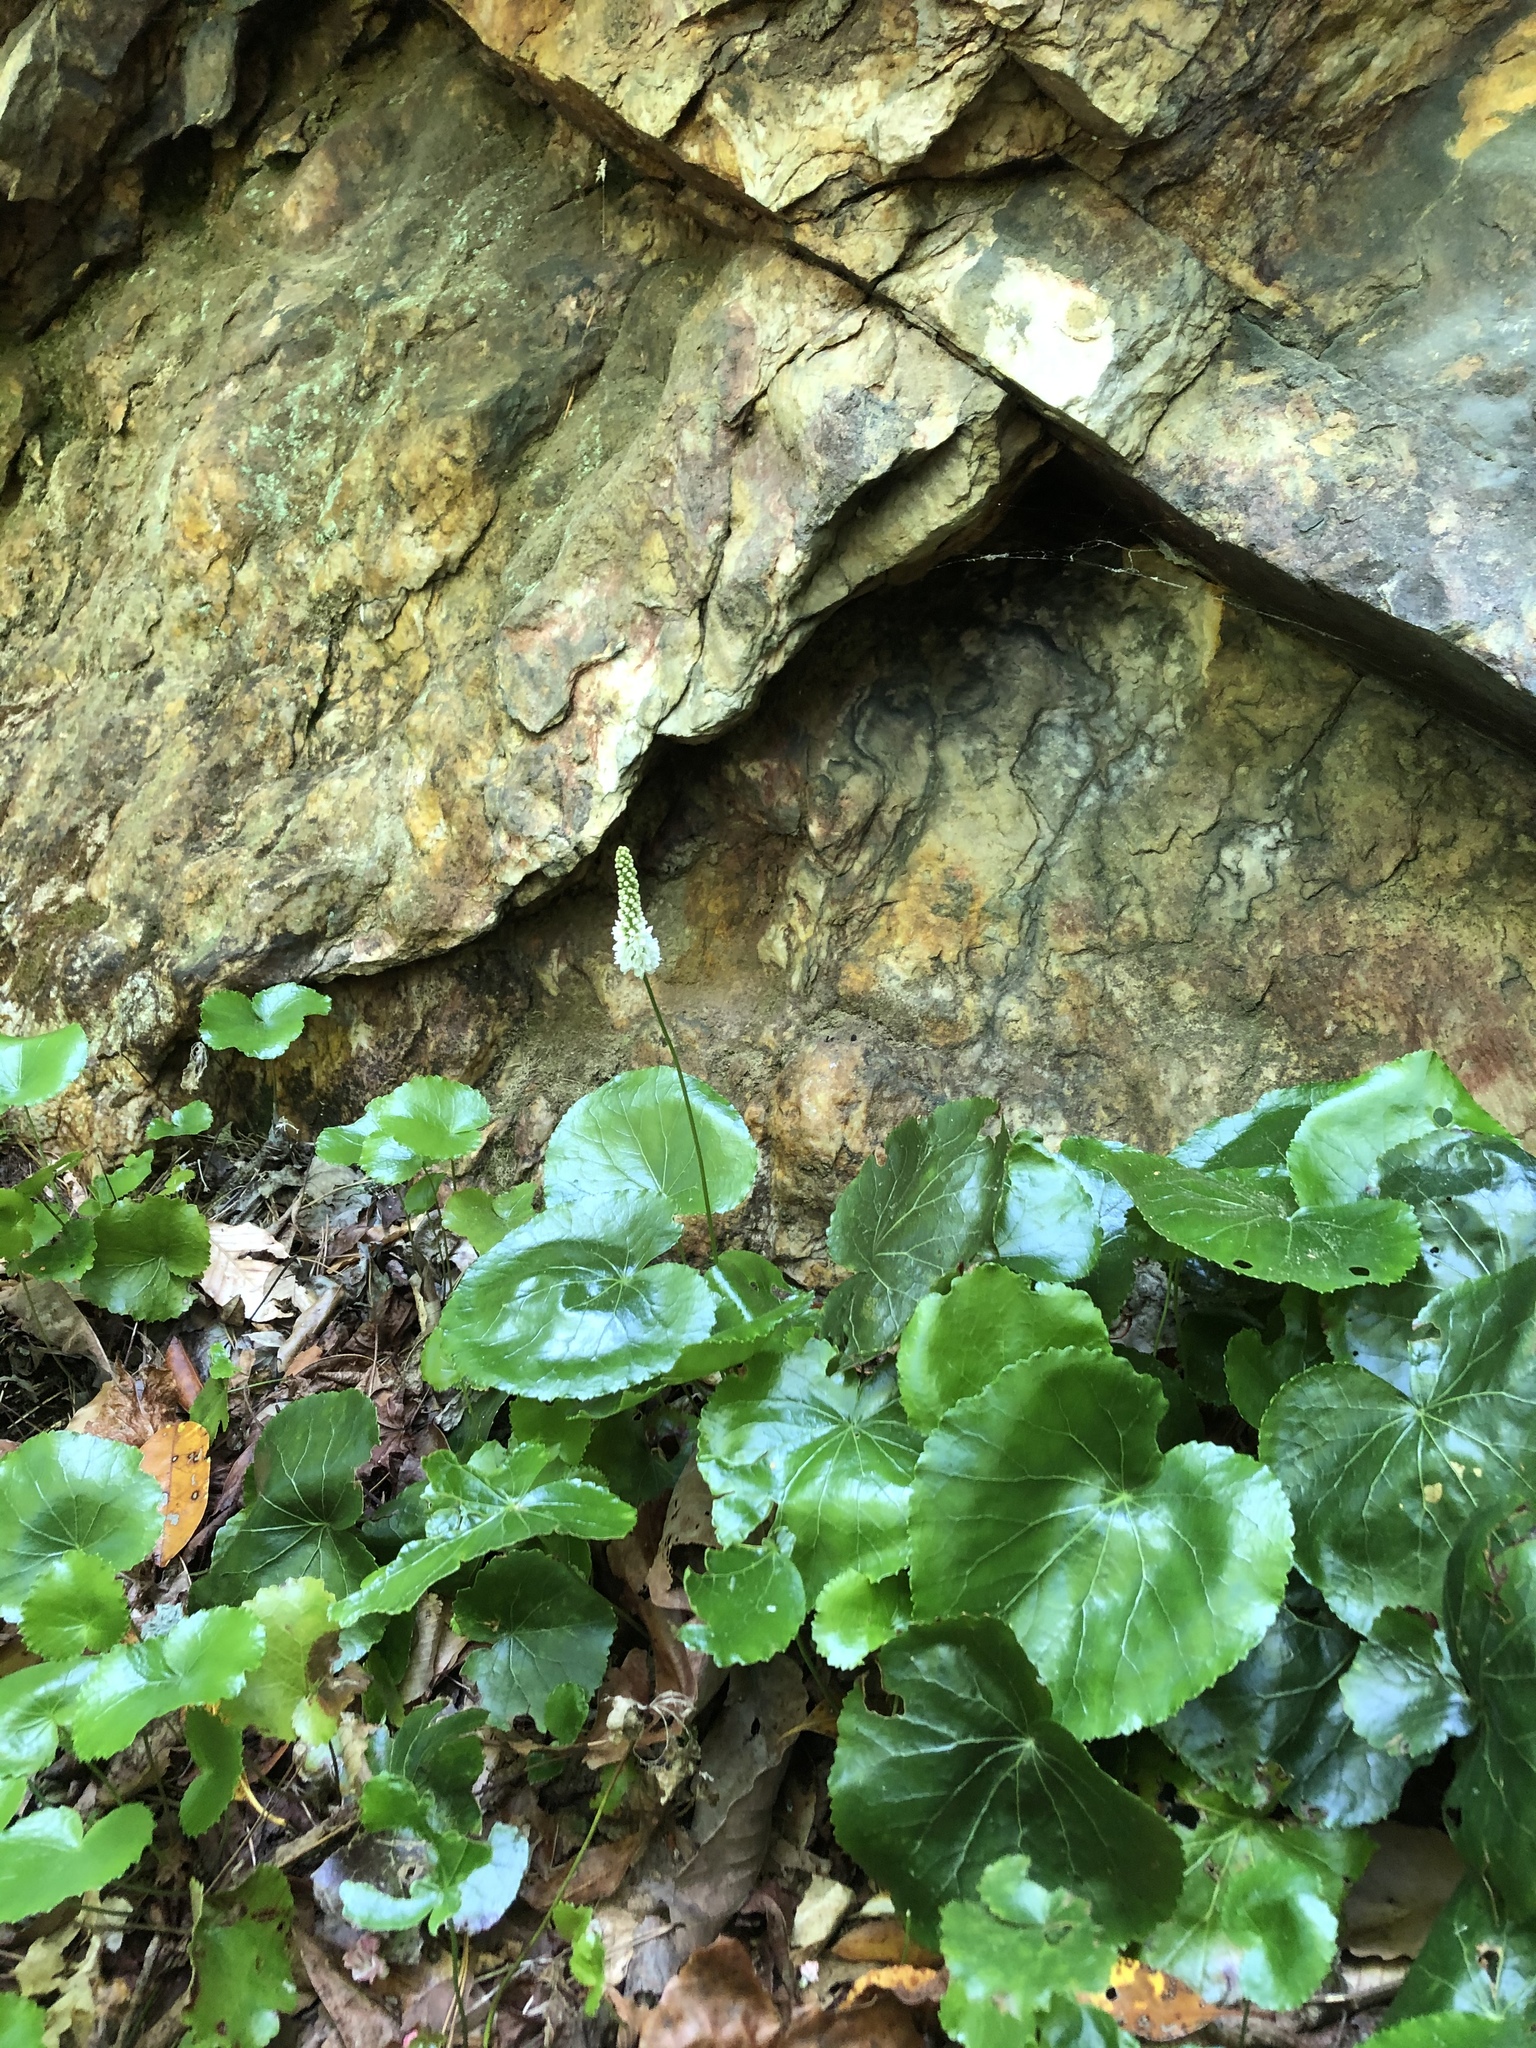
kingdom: Plantae
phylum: Tracheophyta
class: Magnoliopsida
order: Ericales
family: Diapensiaceae
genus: Galax
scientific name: Galax urceolata
